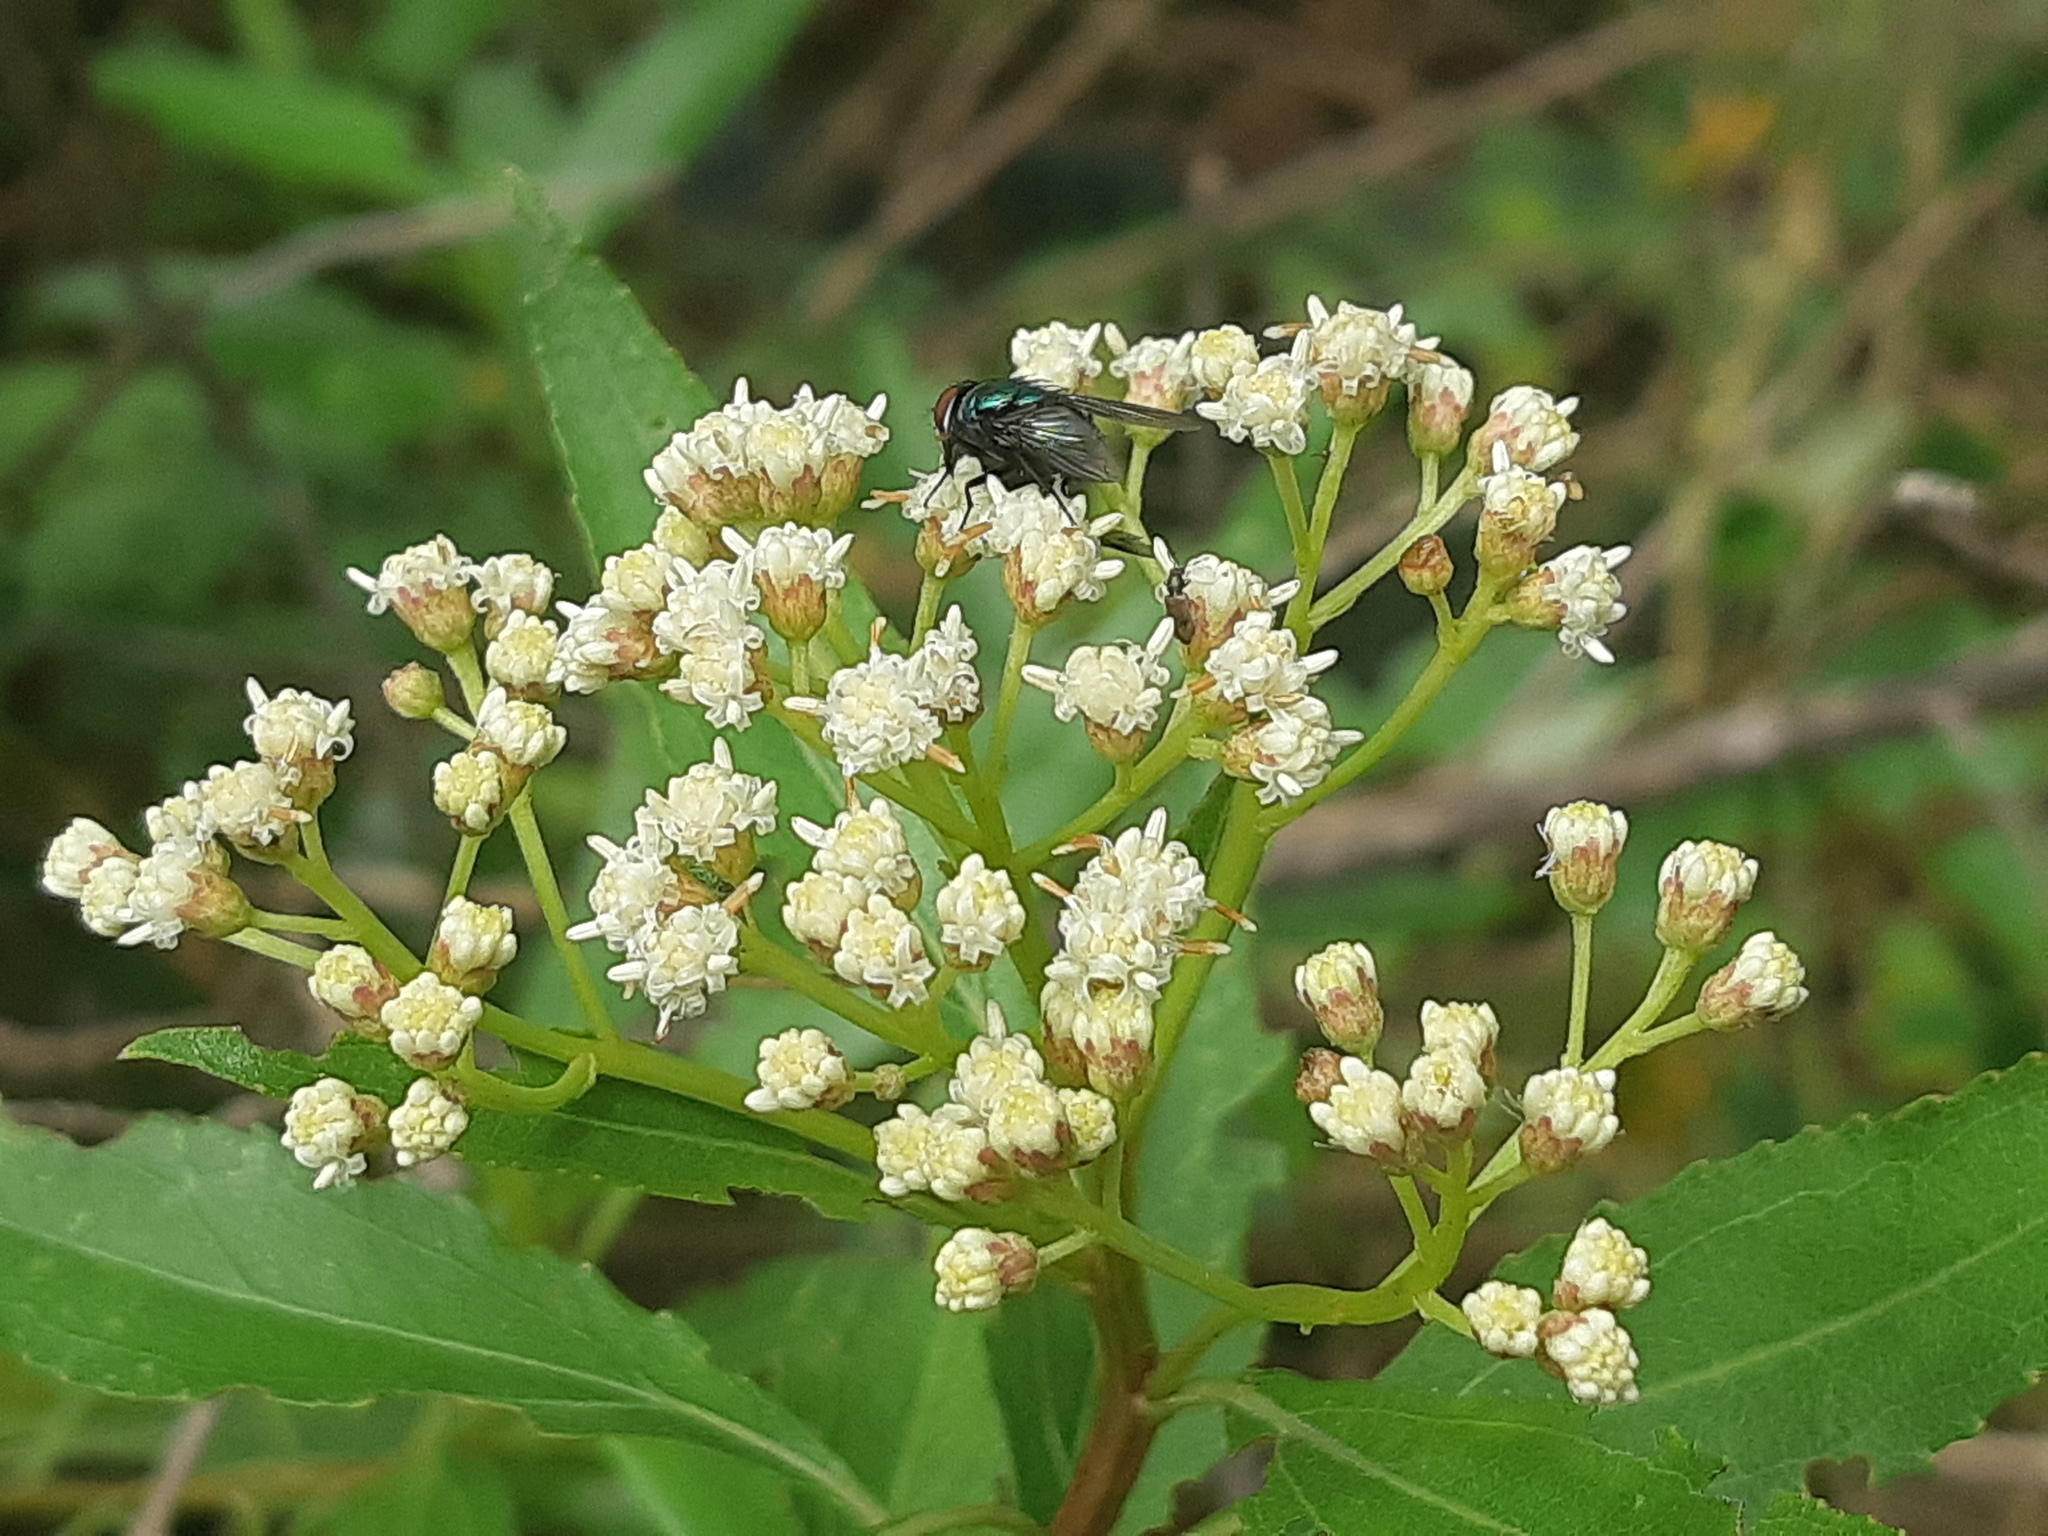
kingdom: Plantae
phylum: Tracheophyta
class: Magnoliopsida
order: Asterales
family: Asteraceae
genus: Baccharis
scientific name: Baccharis latifolia
